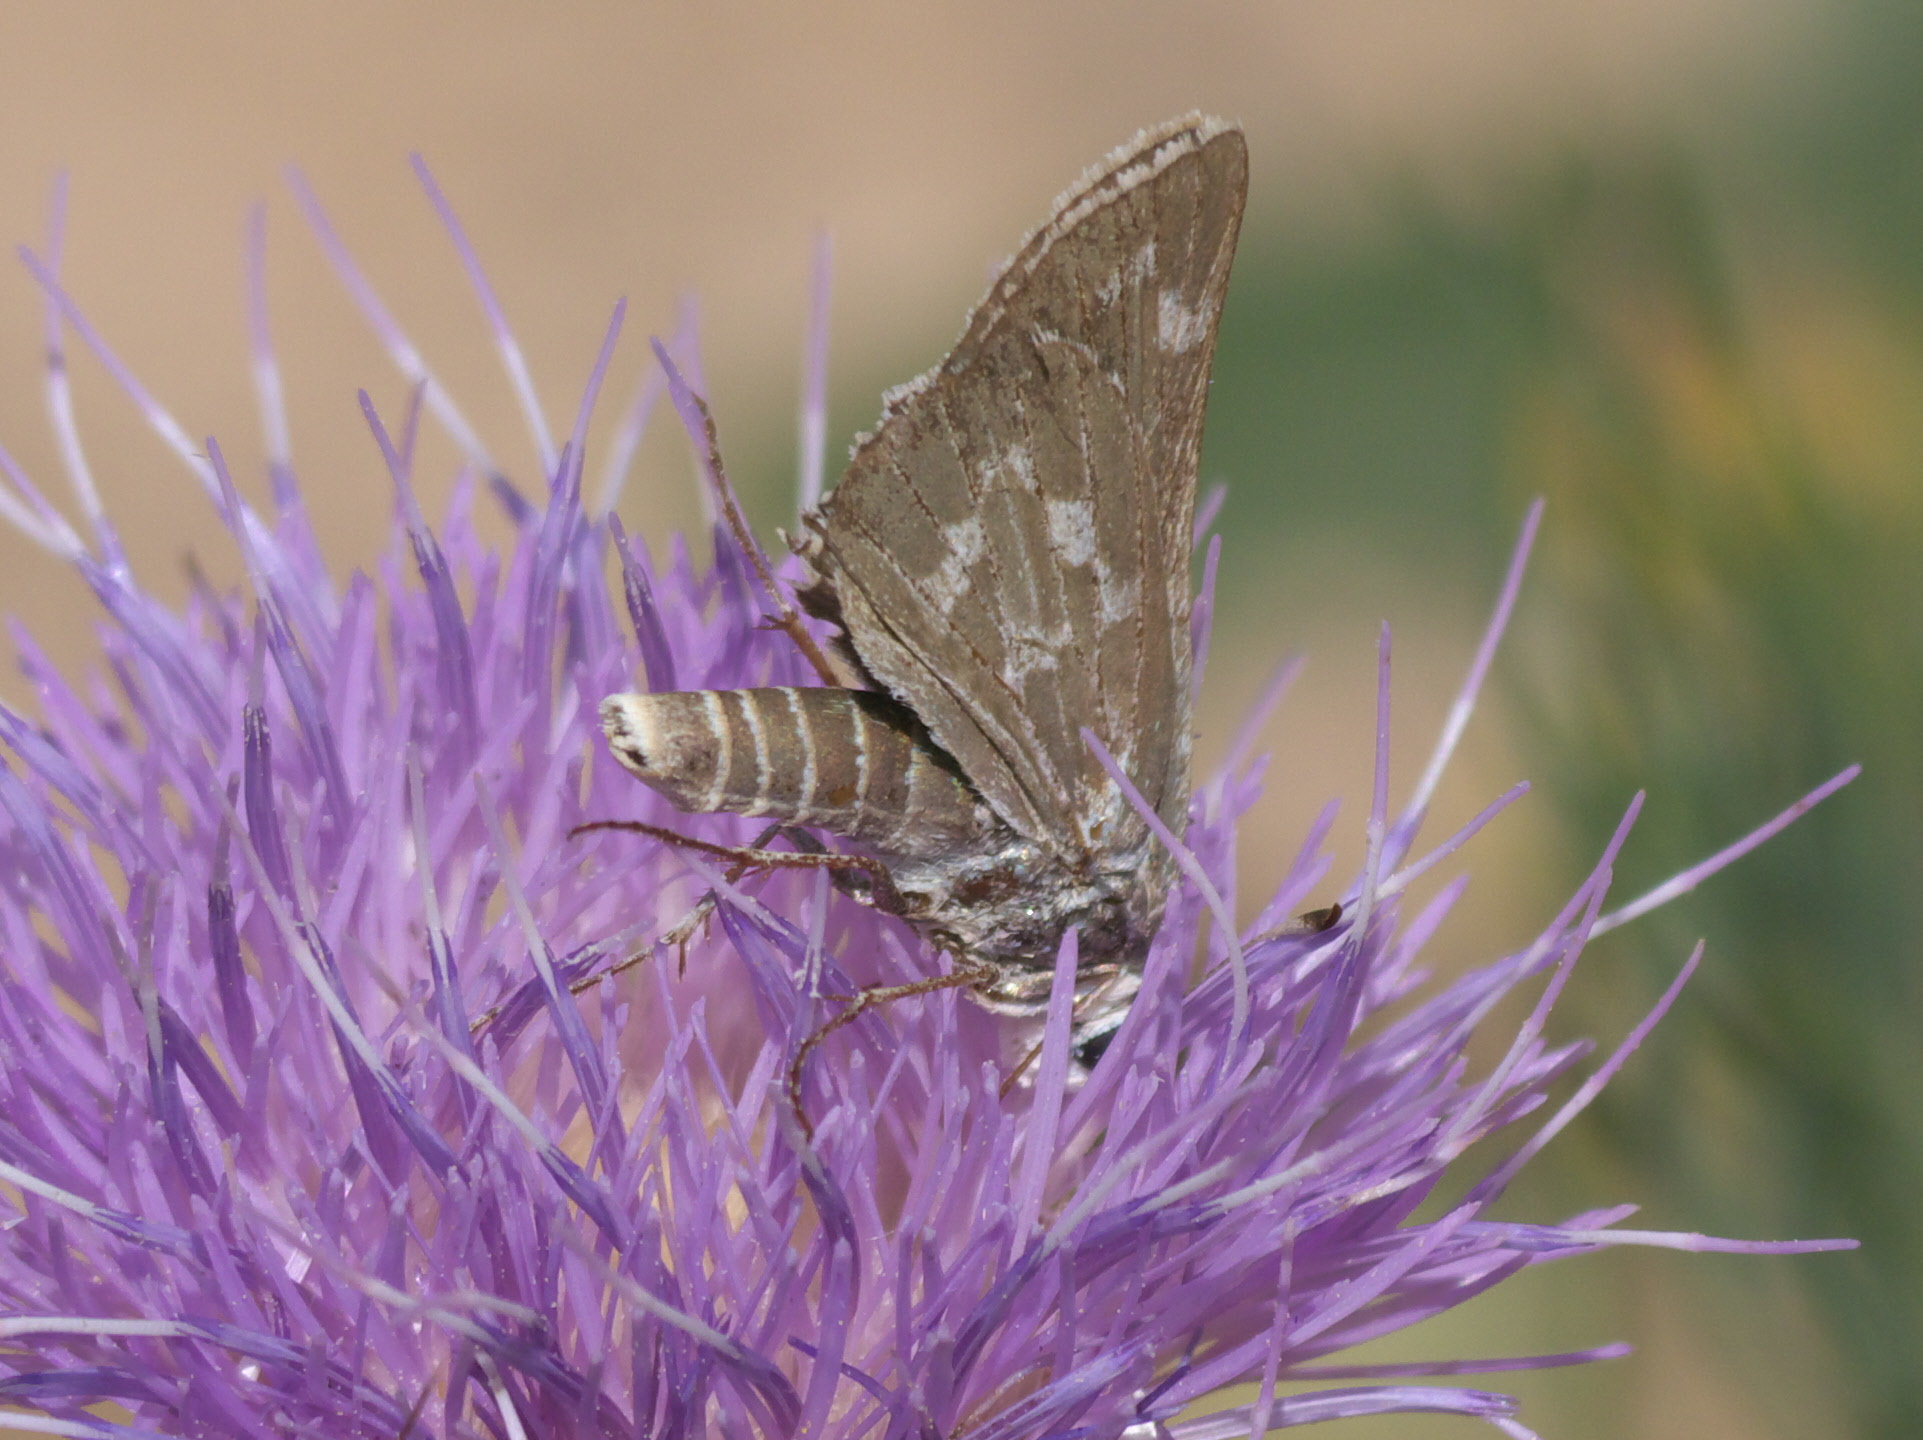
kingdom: Animalia
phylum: Arthropoda
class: Insecta
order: Lepidoptera
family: Hesperiidae
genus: Hesperia
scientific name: Hesperia uncas
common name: Uncas skipper
